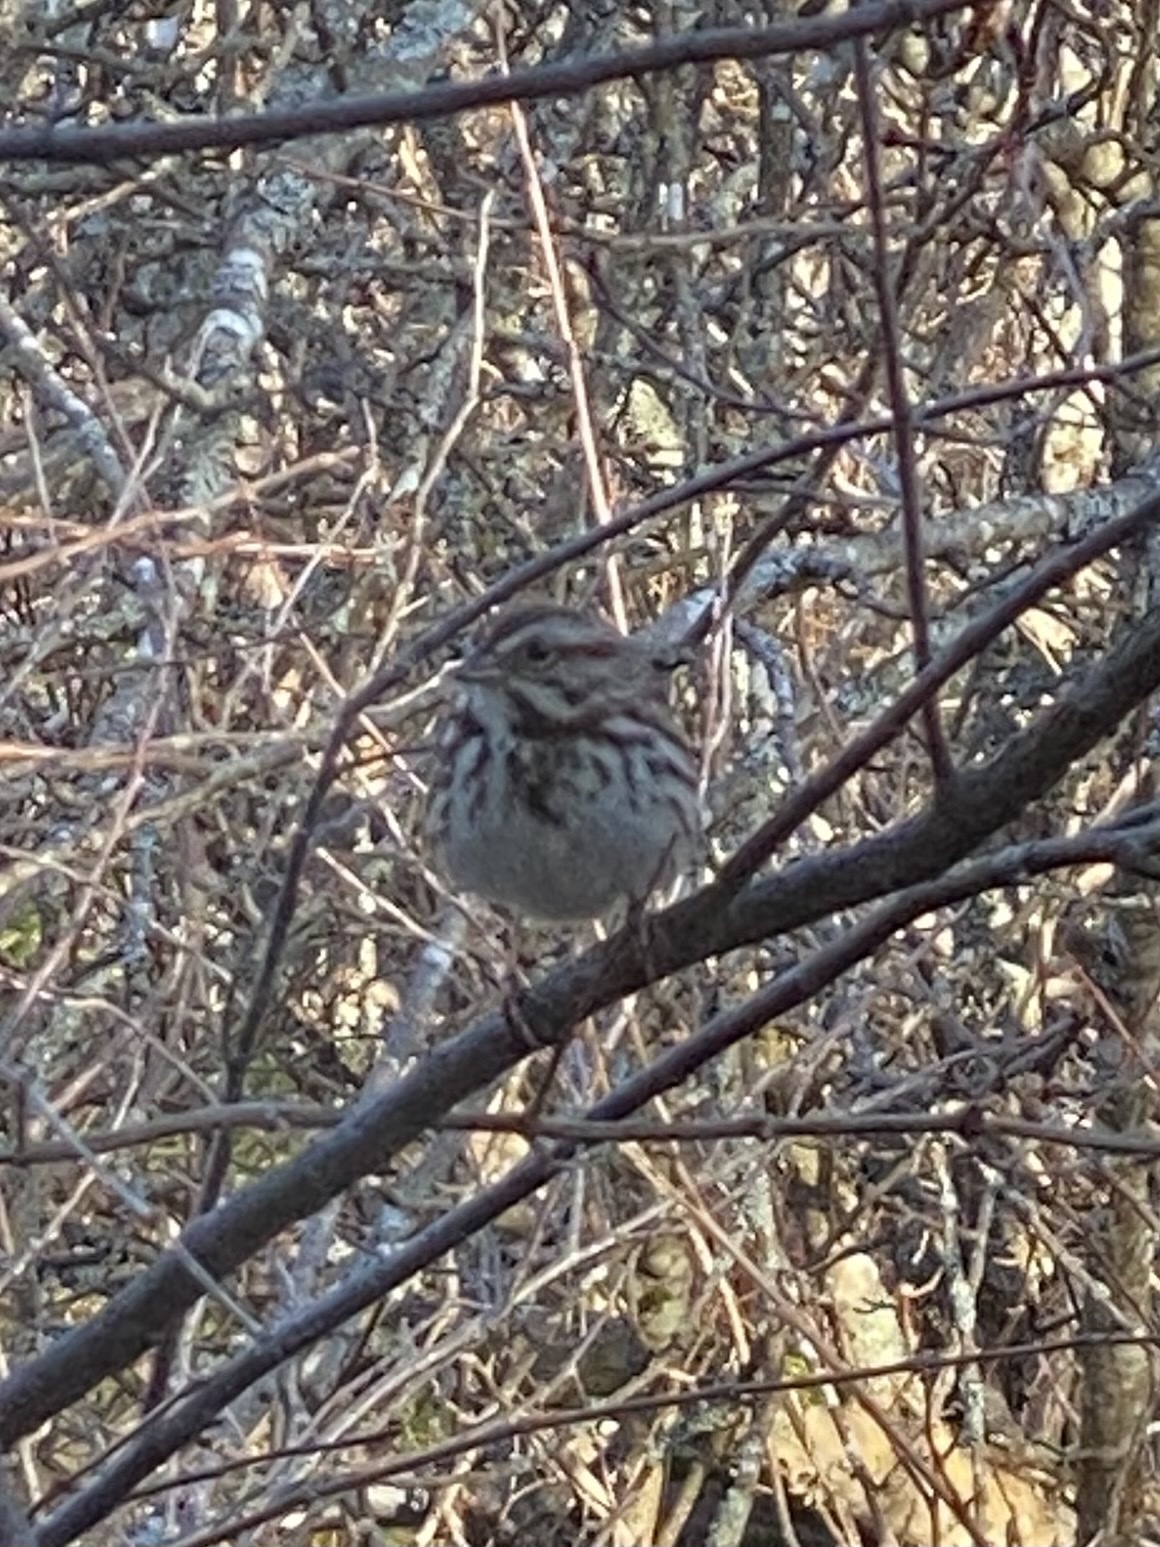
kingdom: Animalia
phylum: Chordata
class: Aves
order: Passeriformes
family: Passerellidae
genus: Melospiza
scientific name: Melospiza melodia
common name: Song sparrow
